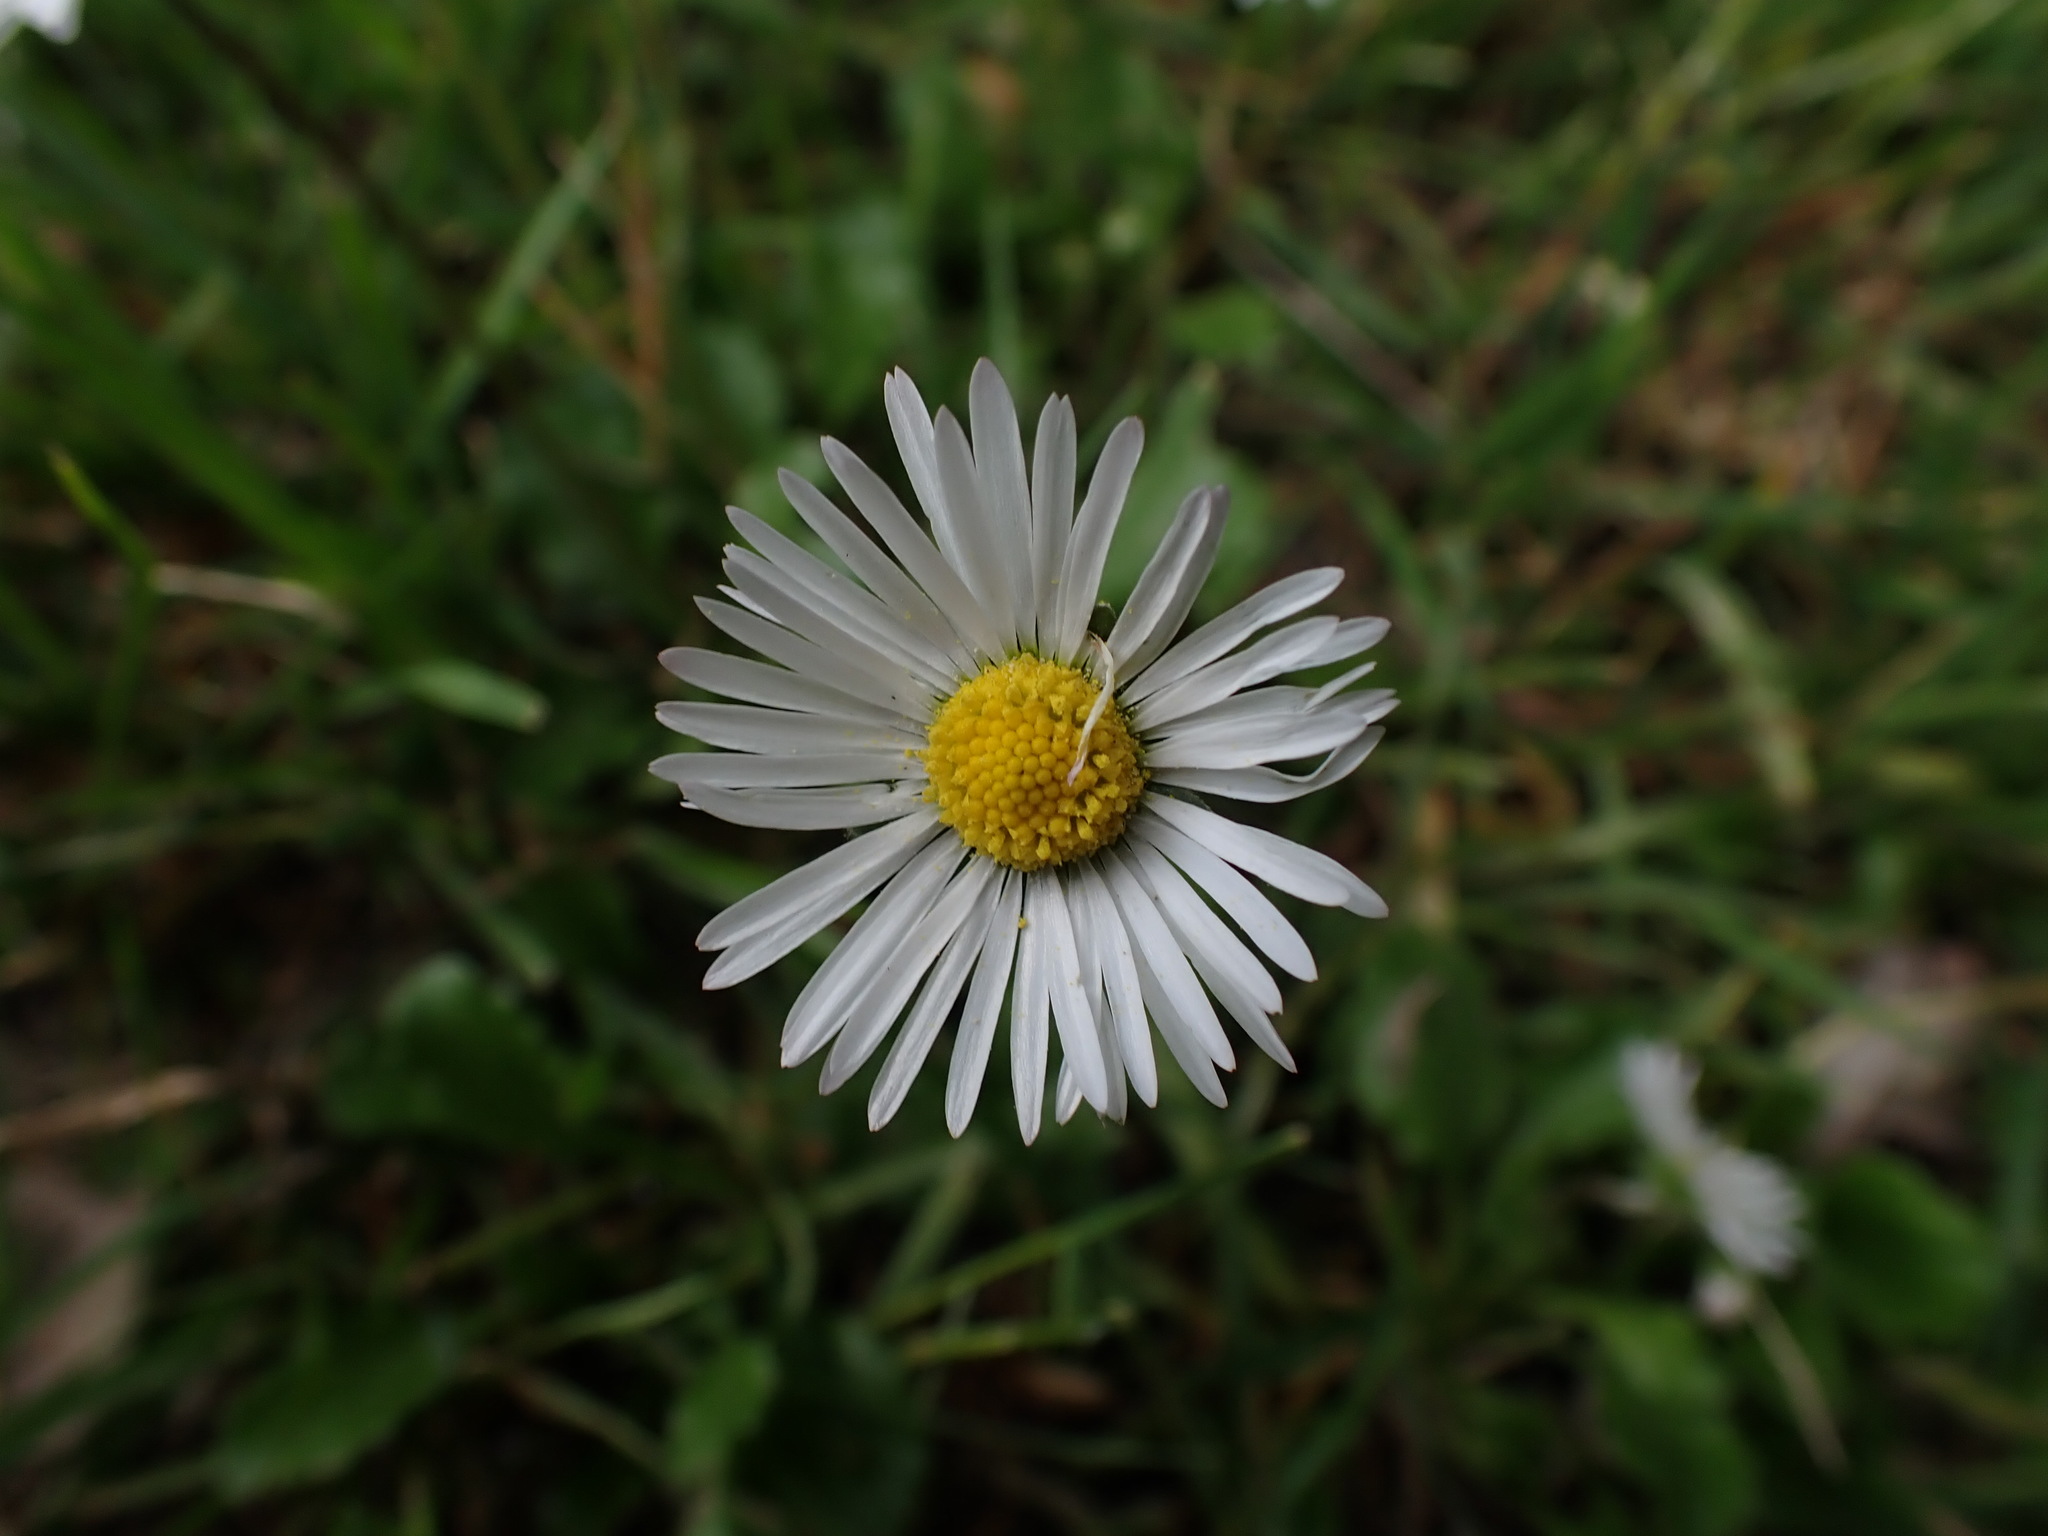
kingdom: Plantae
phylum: Tracheophyta
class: Magnoliopsida
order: Asterales
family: Asteraceae
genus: Bellis
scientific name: Bellis perennis
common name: Lawndaisy
